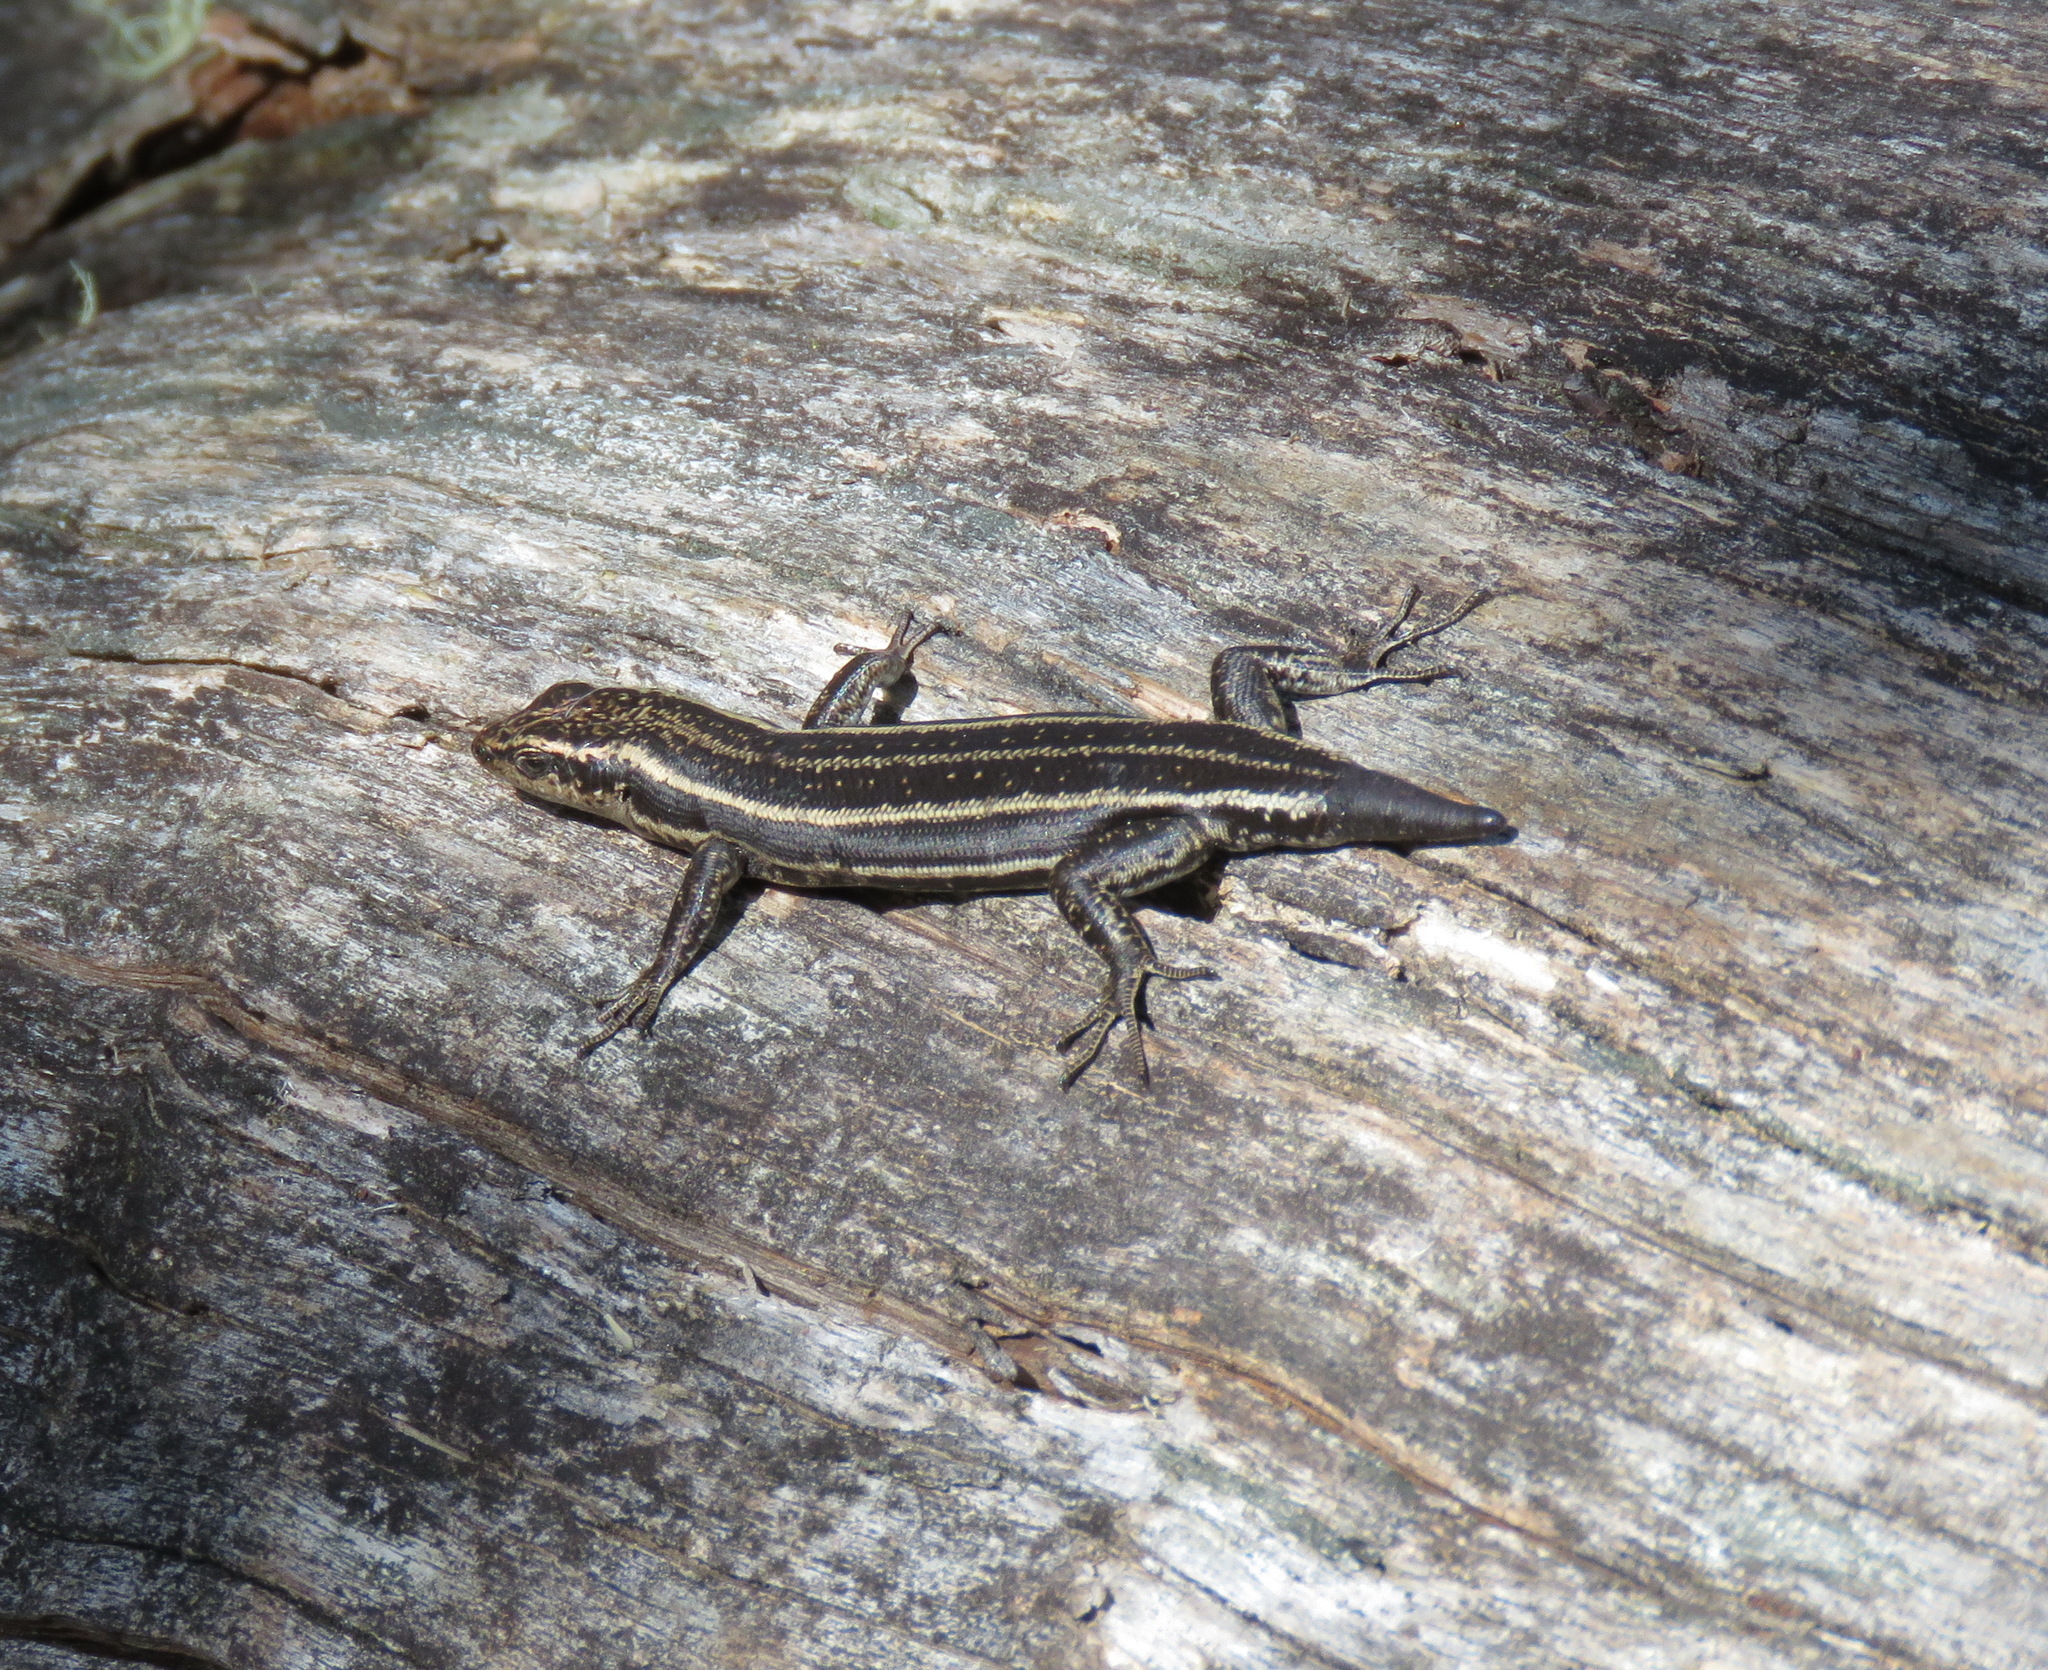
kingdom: Animalia
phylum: Chordata
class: Squamata
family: Scincidae
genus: Pseudemoia
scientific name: Pseudemoia spenceri
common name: Trunk-climbing cool-skink
